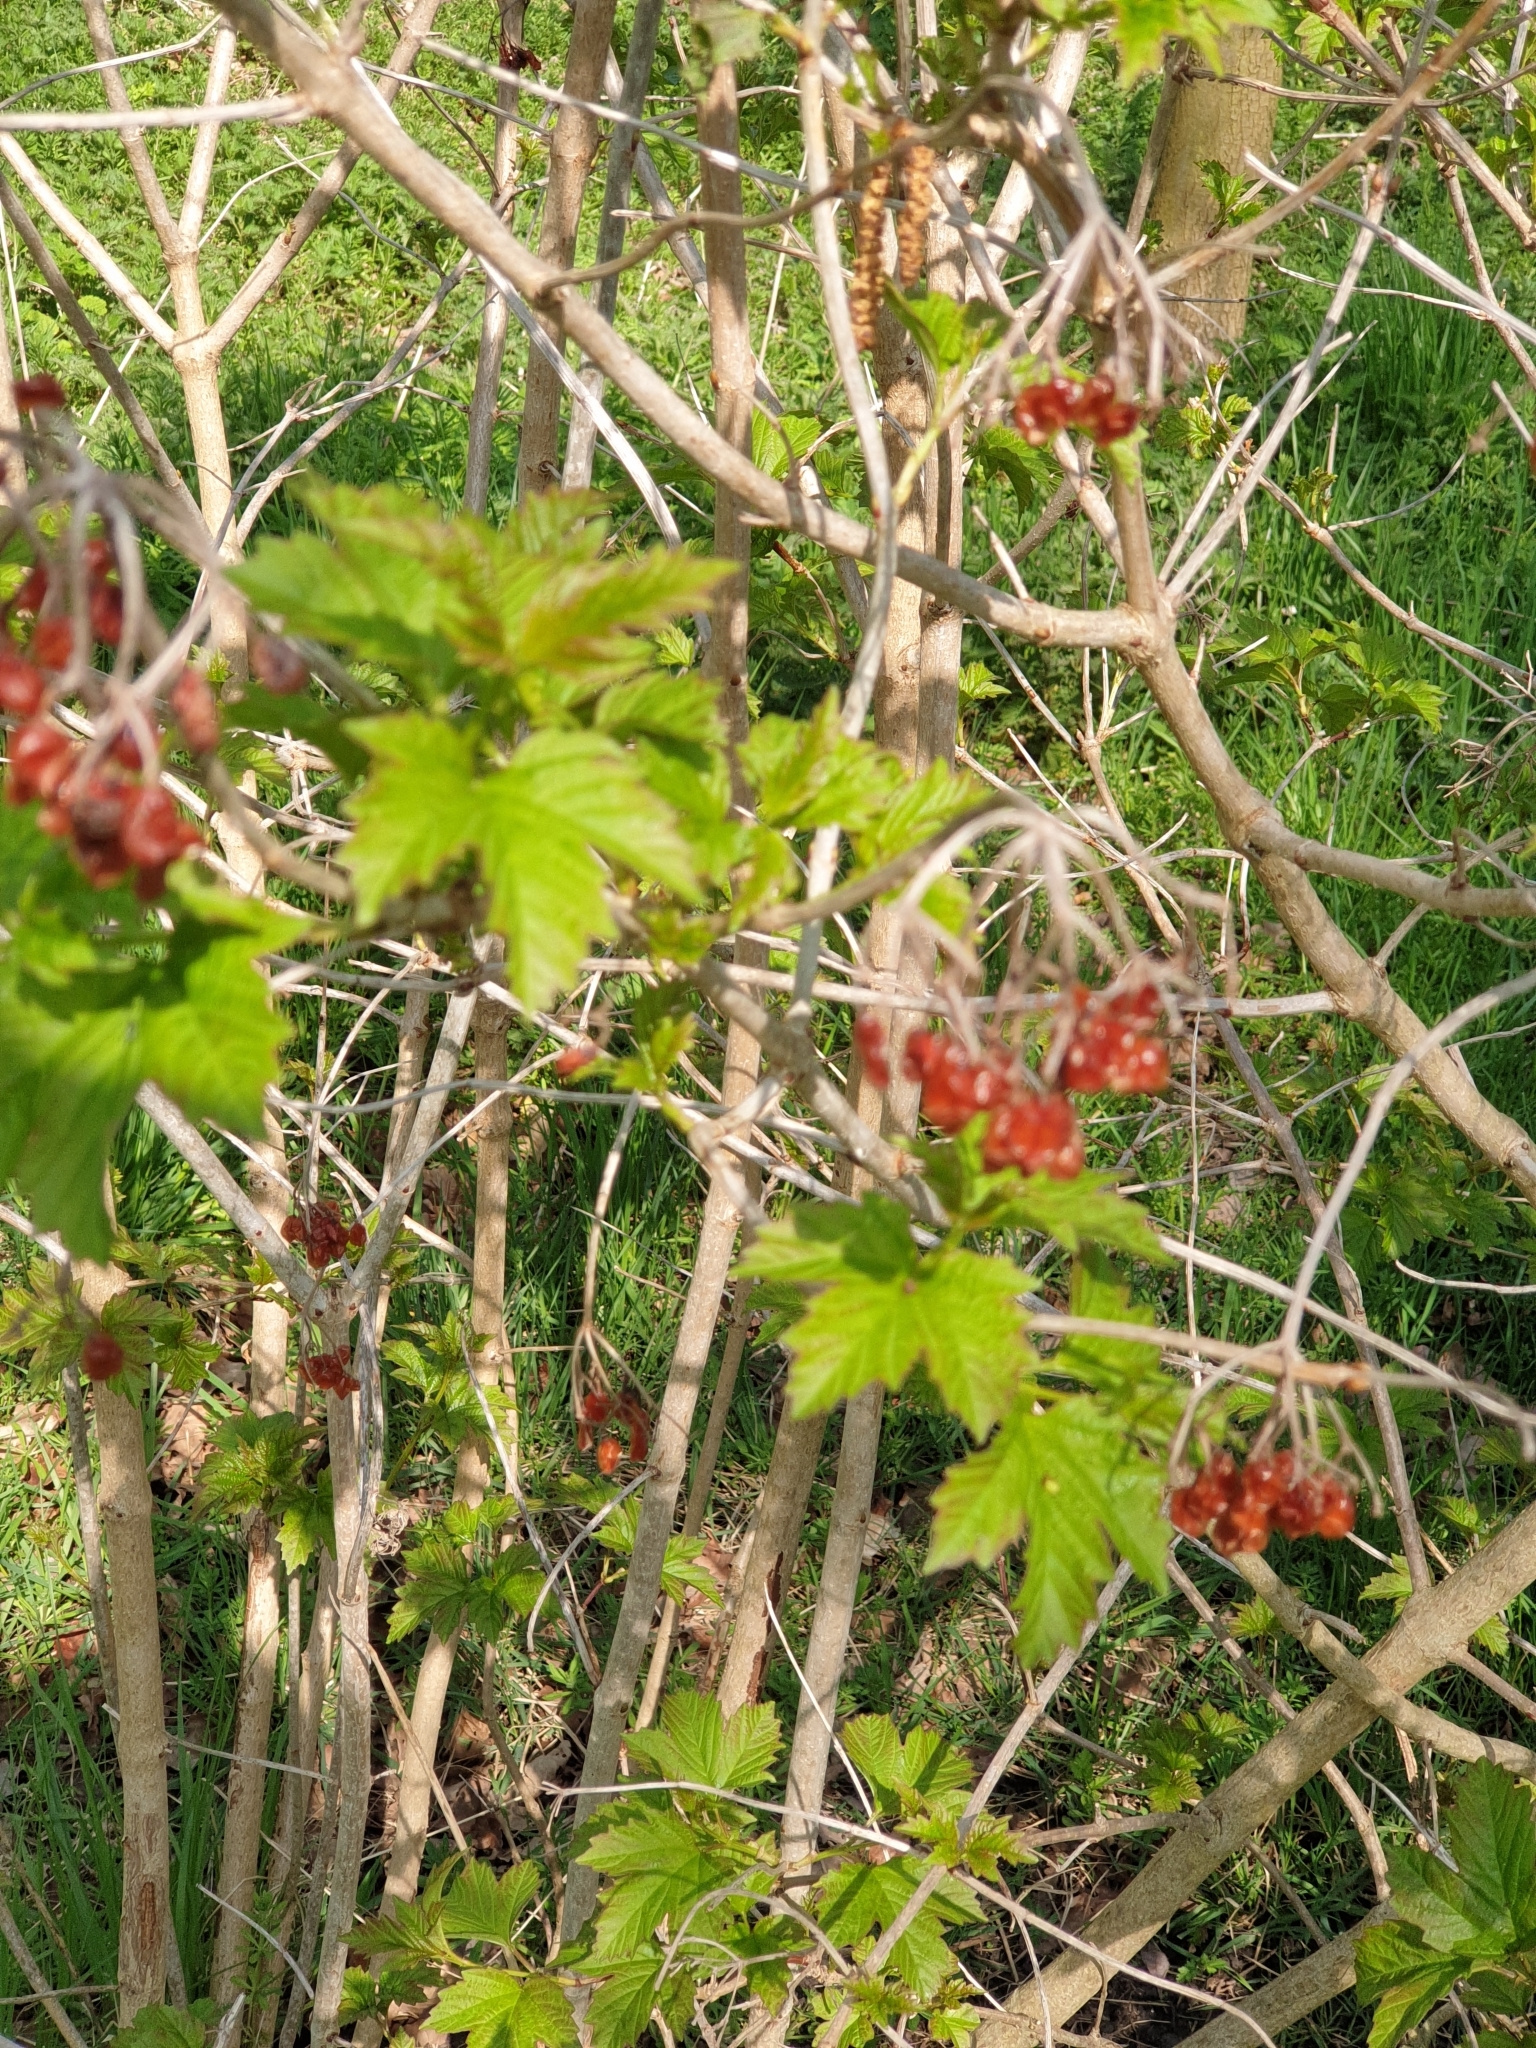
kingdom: Plantae
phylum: Tracheophyta
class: Magnoliopsida
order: Dipsacales
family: Viburnaceae
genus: Viburnum
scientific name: Viburnum opulus
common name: Guelder-rose
